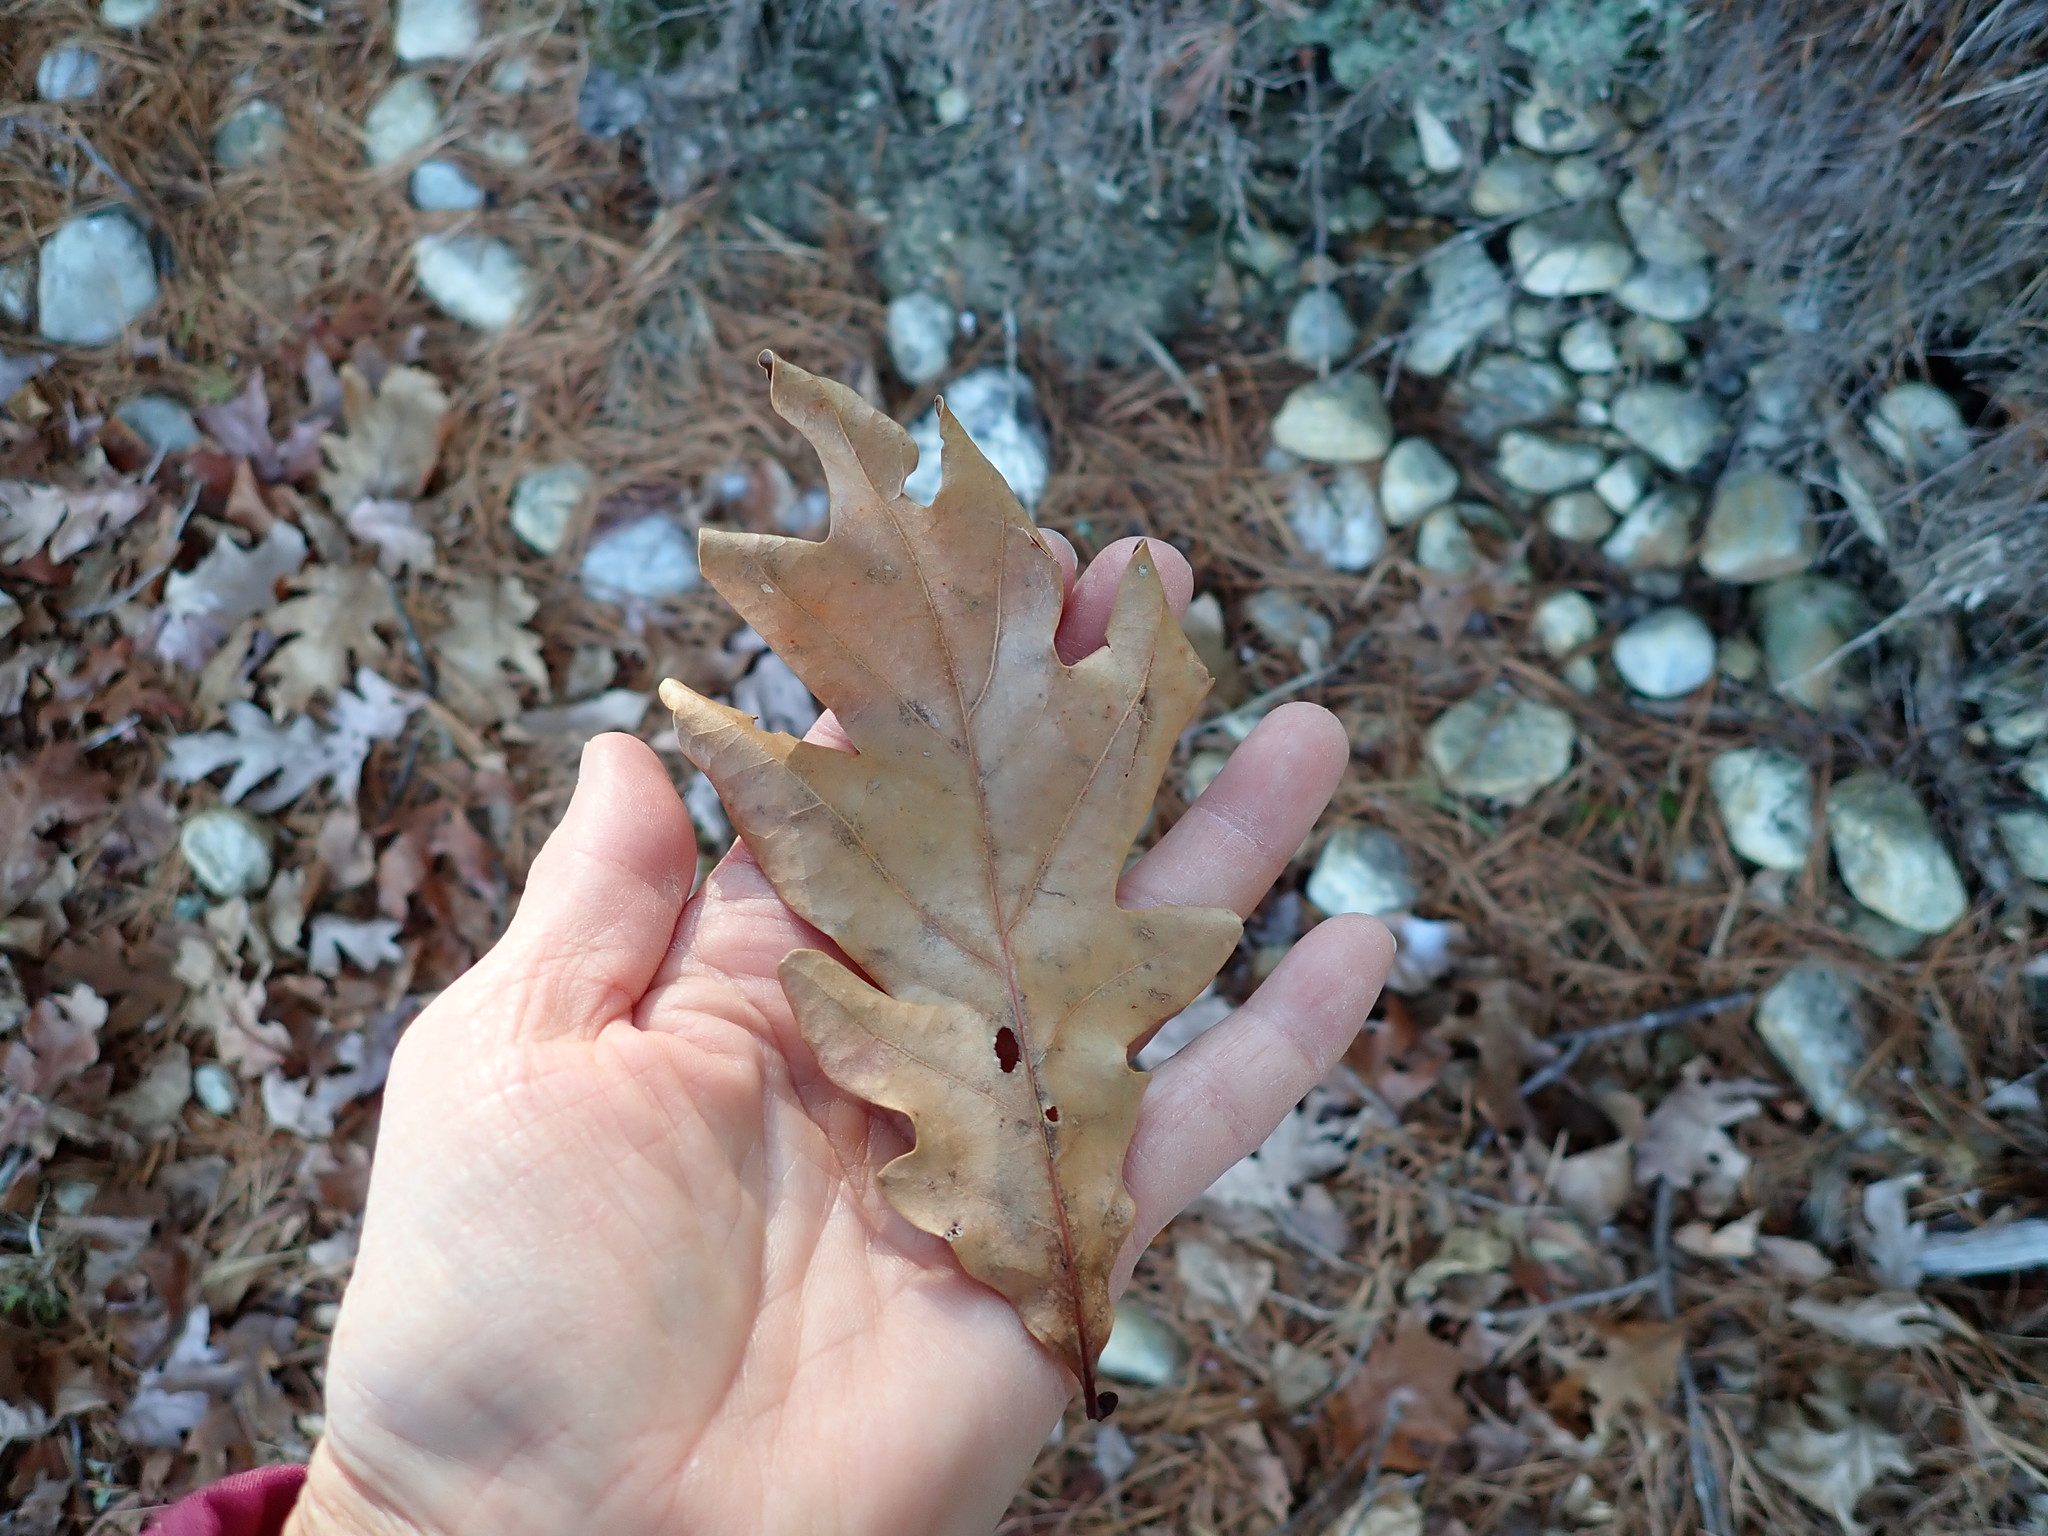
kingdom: Plantae
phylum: Tracheophyta
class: Magnoliopsida
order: Fagales
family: Fagaceae
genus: Quercus
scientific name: Quercus alba
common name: White oak
